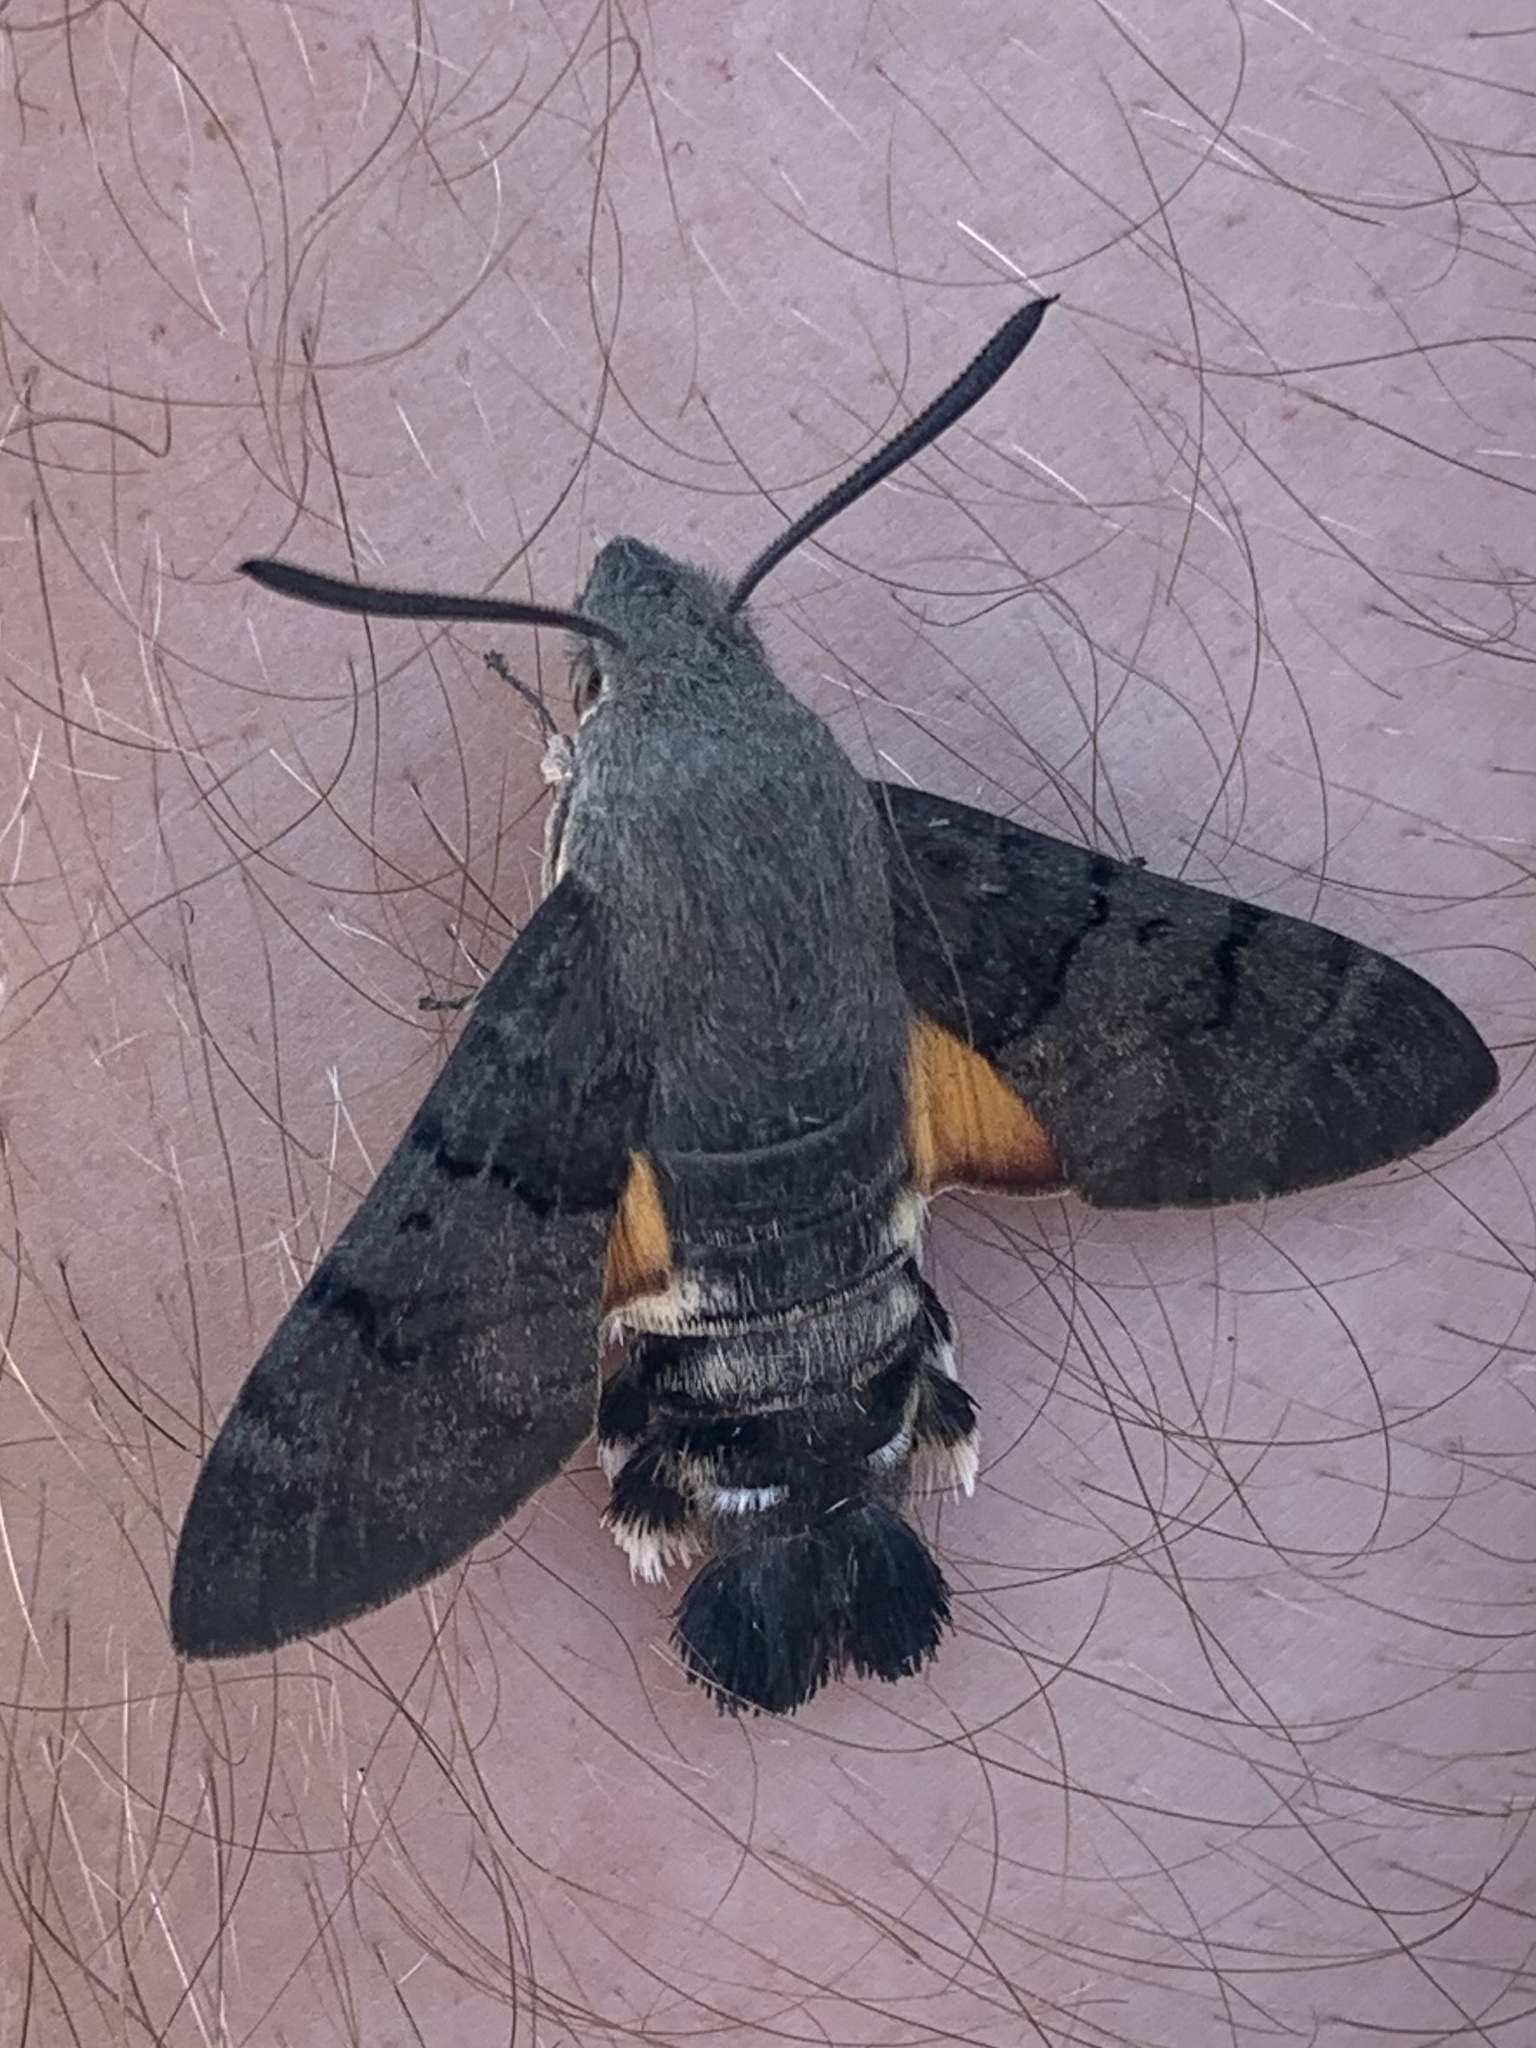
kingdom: Animalia
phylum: Arthropoda
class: Insecta
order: Lepidoptera
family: Sphingidae
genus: Macroglossum
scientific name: Macroglossum stellatarum
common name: Humming-bird hawk-moth
